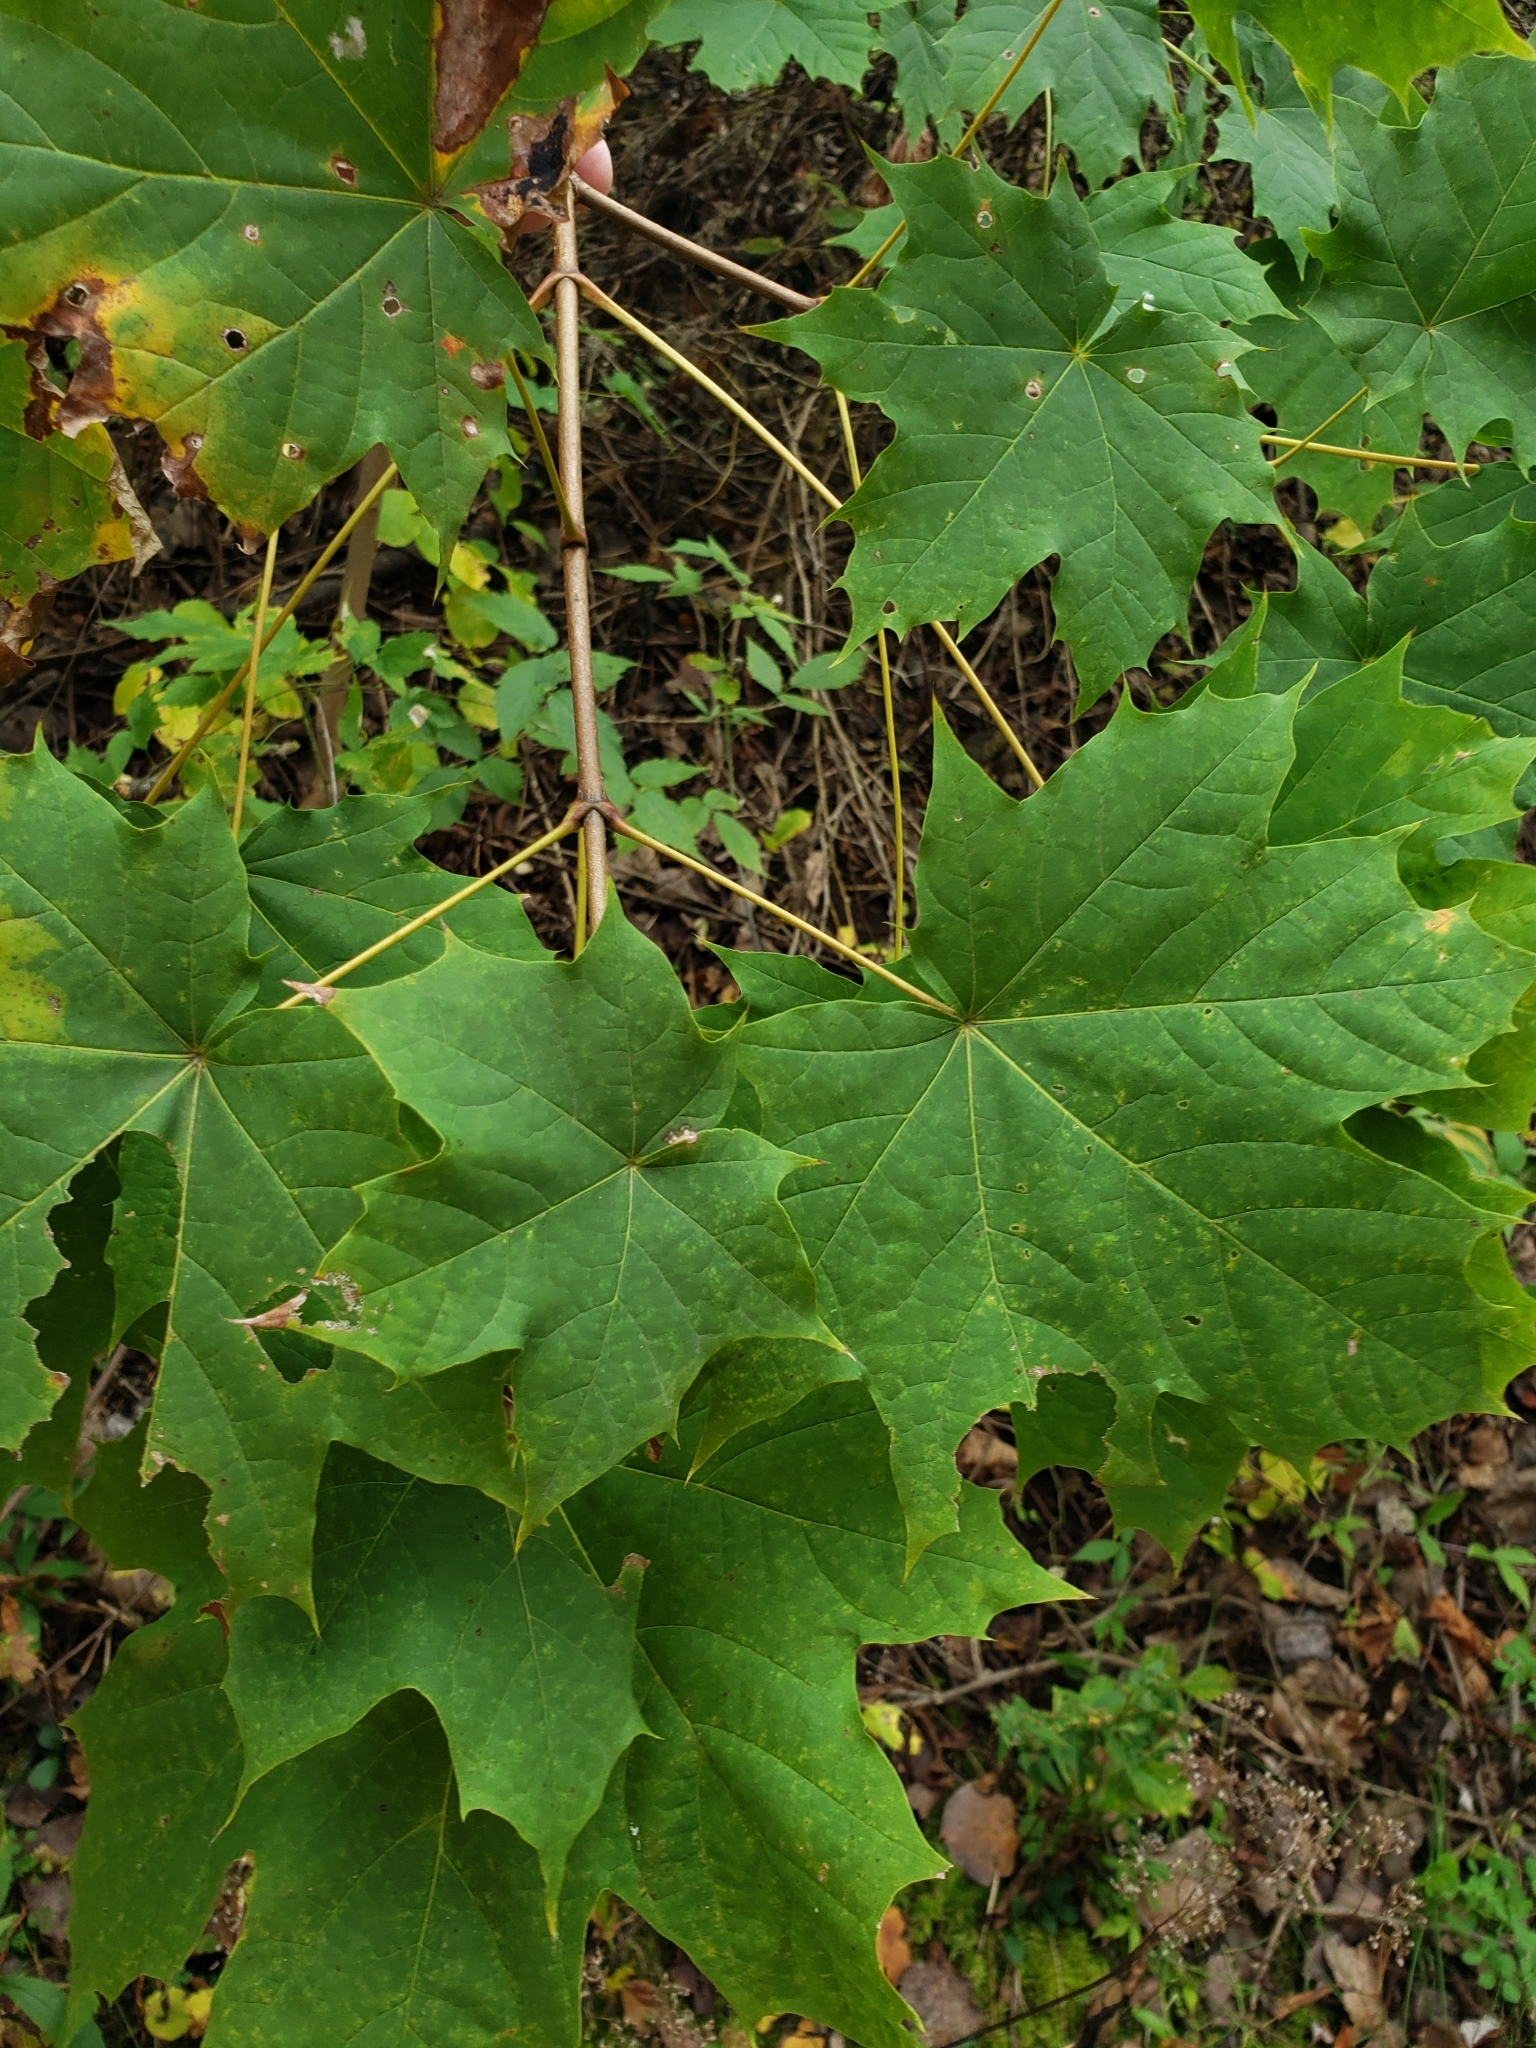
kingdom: Plantae
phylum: Tracheophyta
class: Magnoliopsida
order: Sapindales
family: Sapindaceae
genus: Acer
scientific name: Acer platanoides
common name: Norway maple
